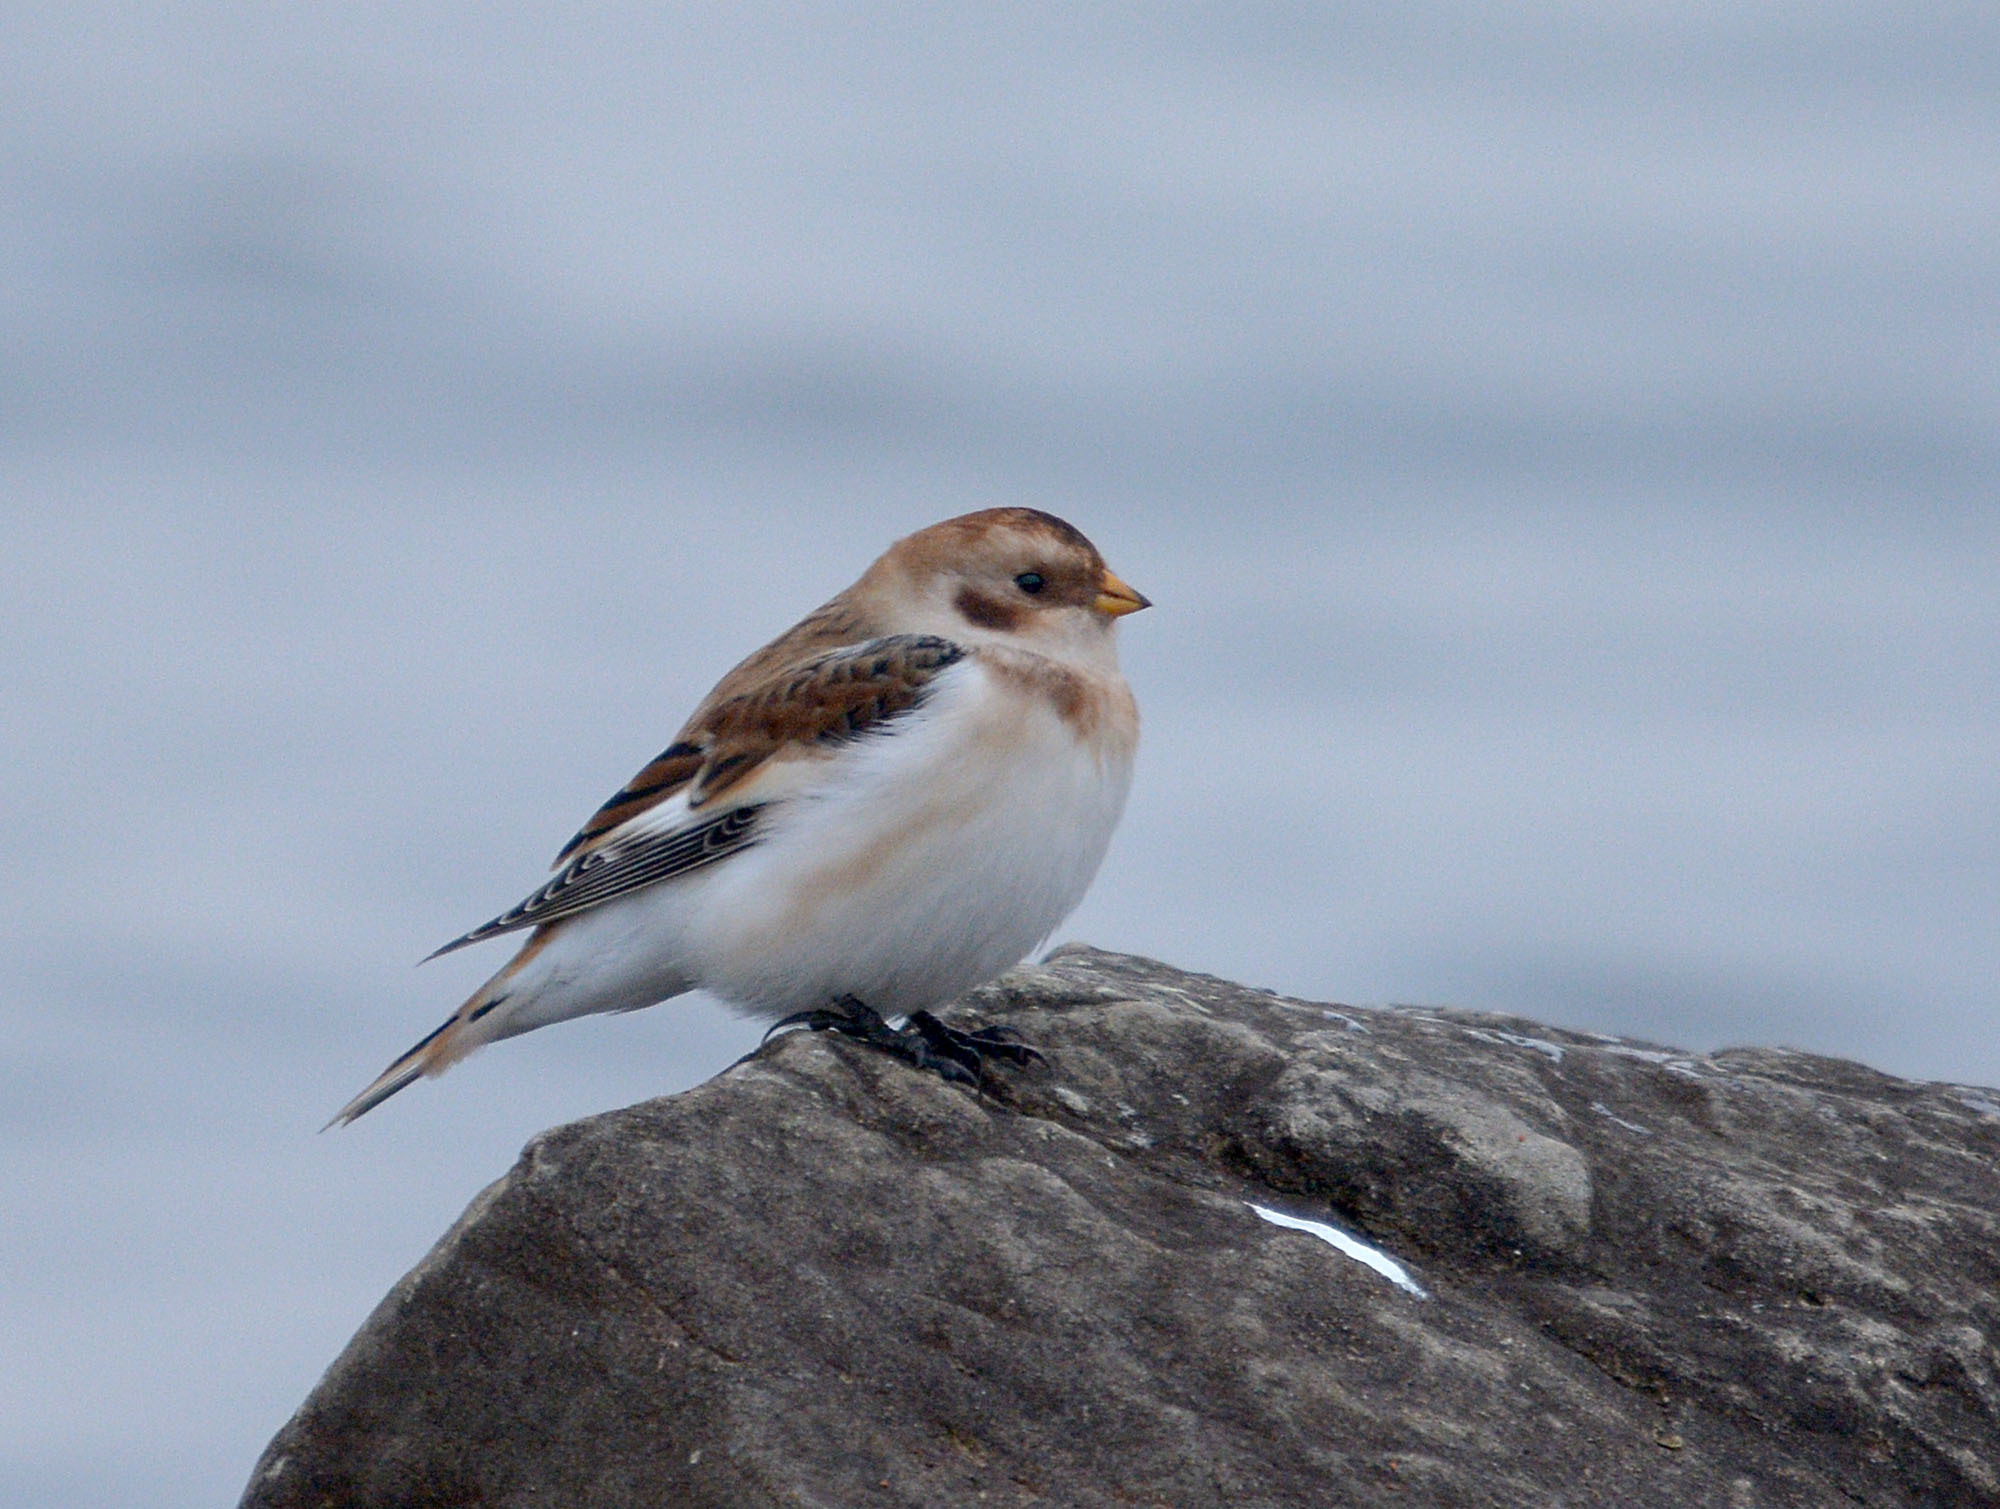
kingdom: Animalia
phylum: Chordata
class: Aves
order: Passeriformes
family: Calcariidae
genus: Plectrophenax
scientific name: Plectrophenax nivalis
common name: Snow bunting
